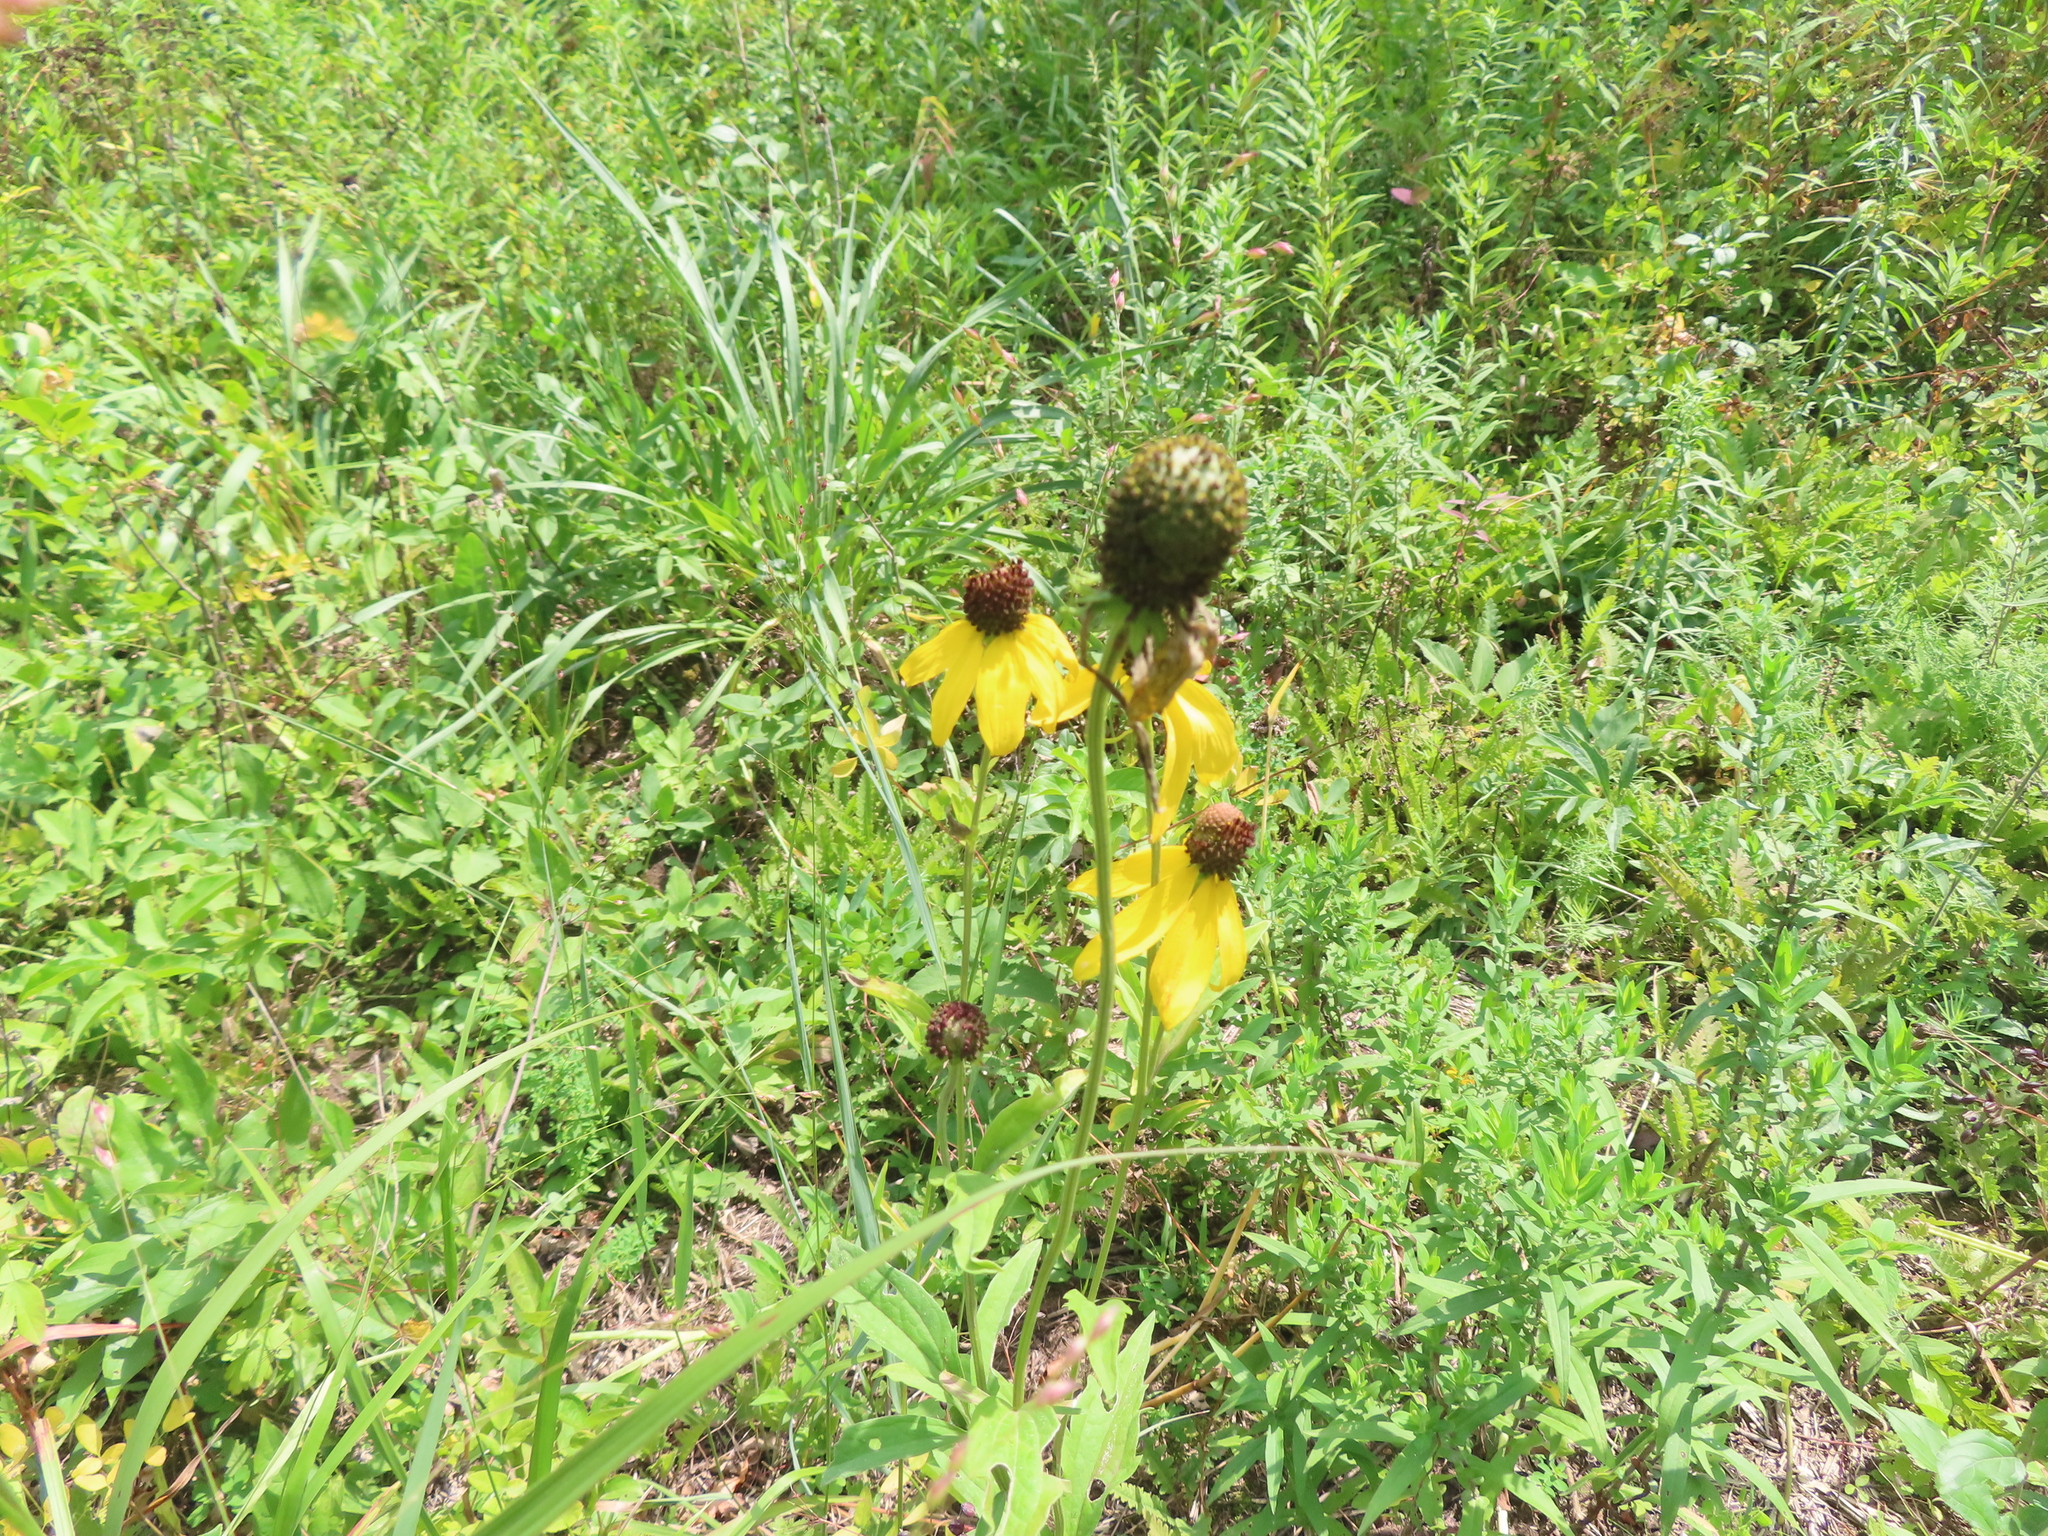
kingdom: Plantae
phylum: Tracheophyta
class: Magnoliopsida
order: Asterales
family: Asteraceae
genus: Ratibida
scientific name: Ratibida pinnata
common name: Drooping prairie-coneflower
